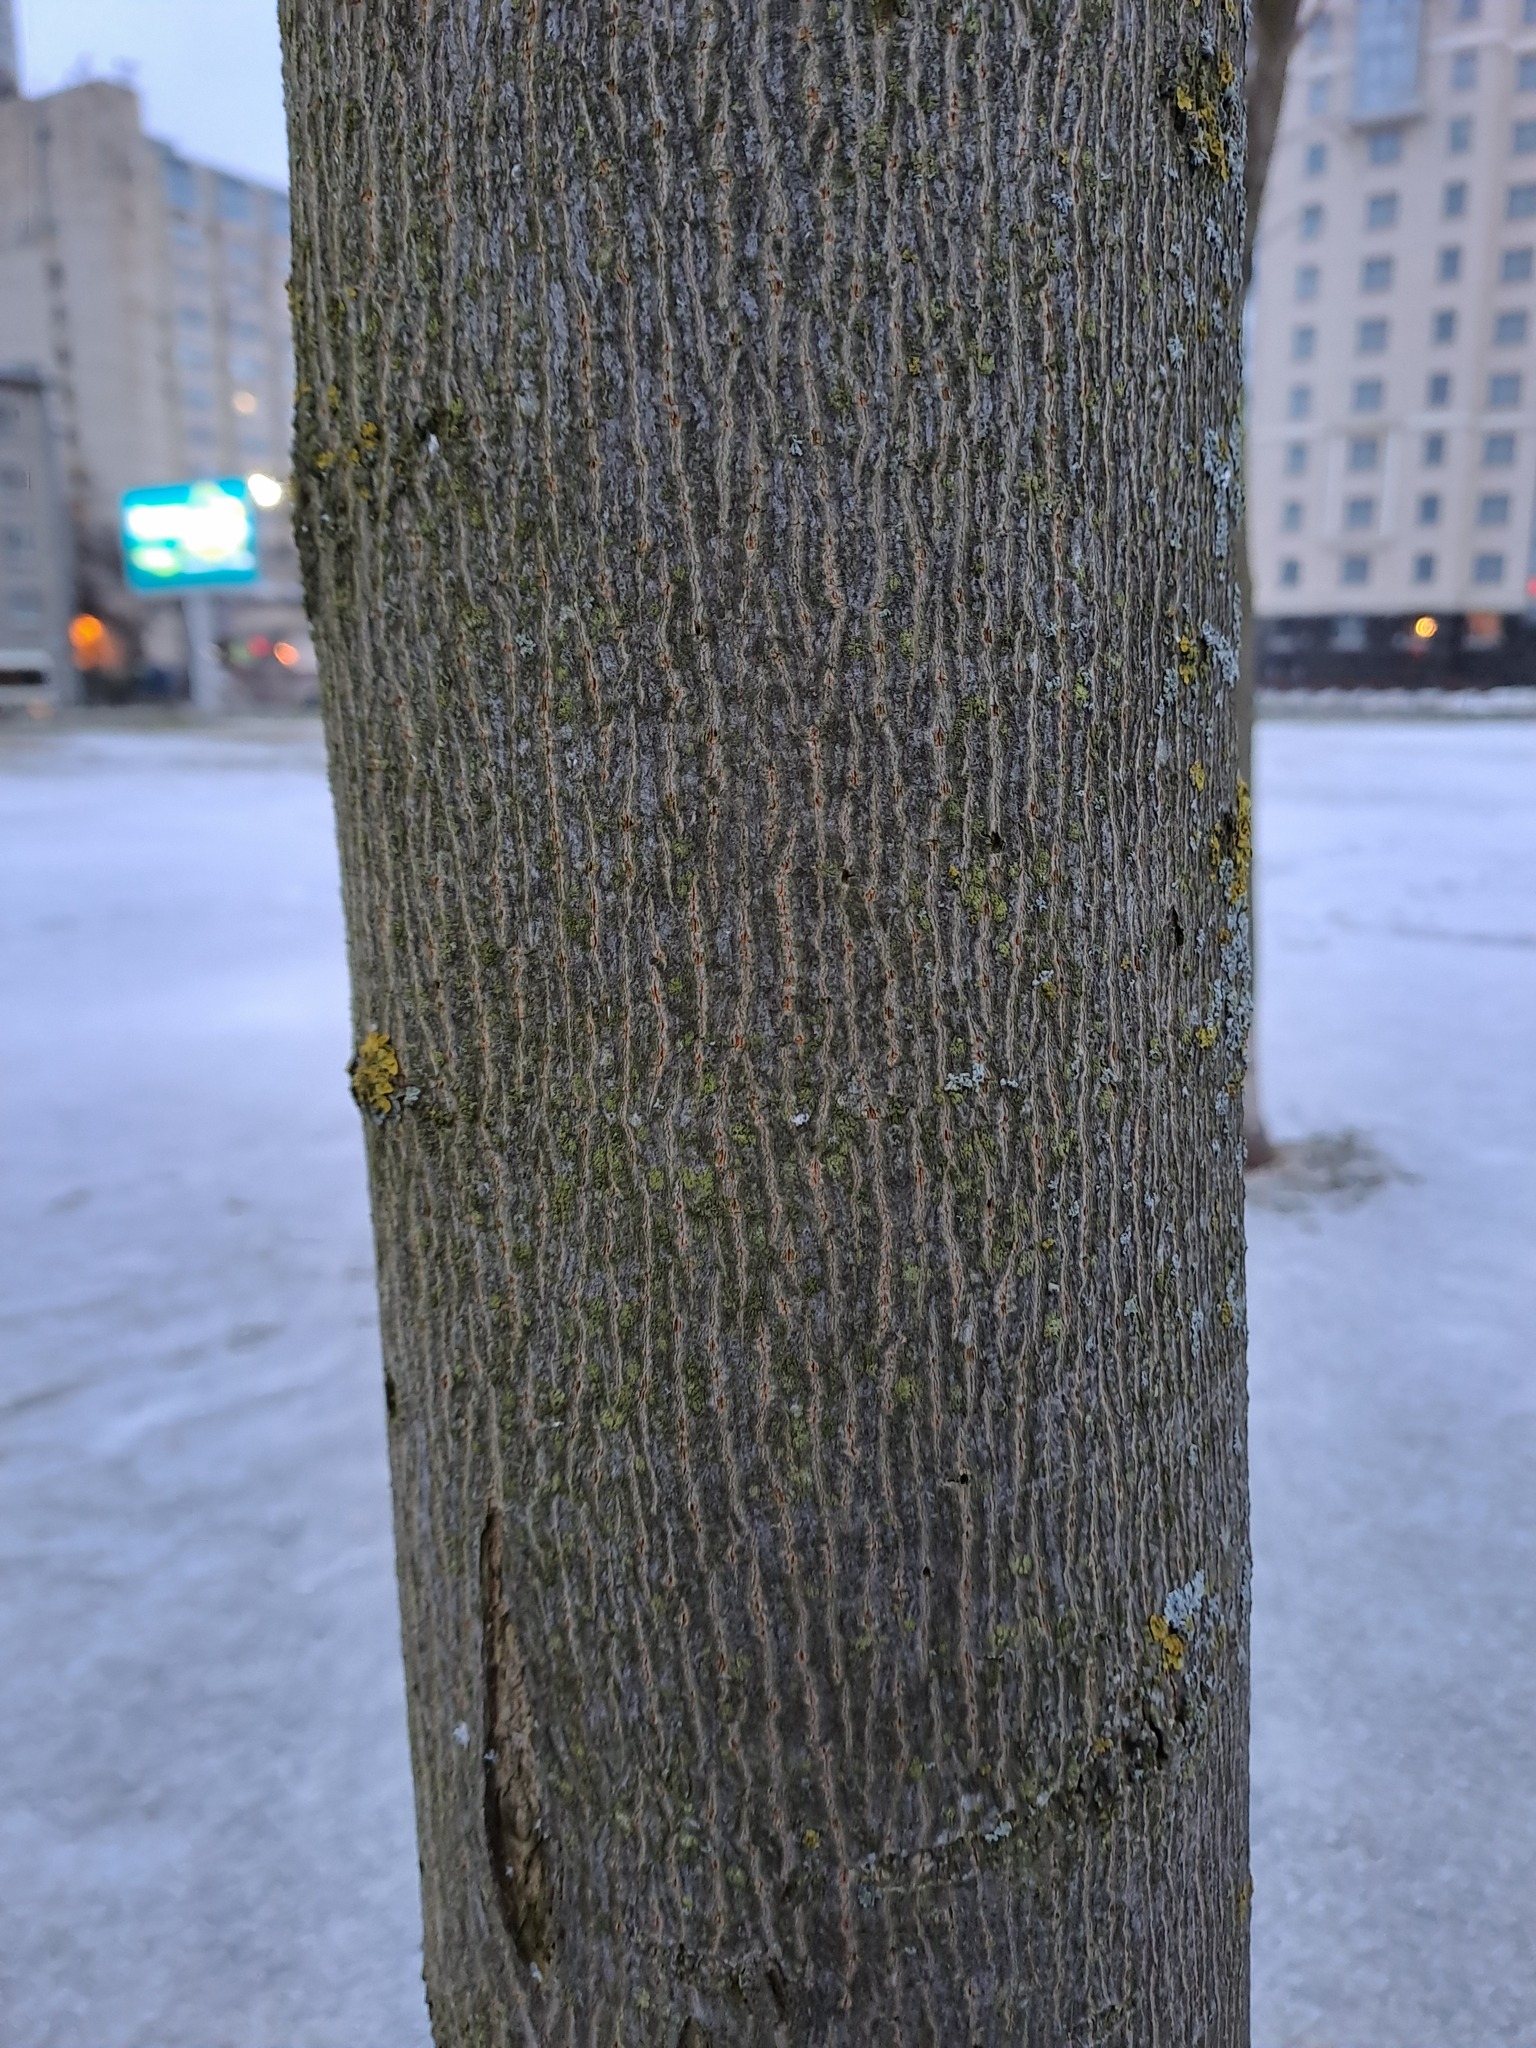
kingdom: Plantae
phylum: Chlorophyta
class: Trebouxiophyceae
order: Prasiolales
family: Prasiolaceae
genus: Desmococcus
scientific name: Desmococcus olivaceus
